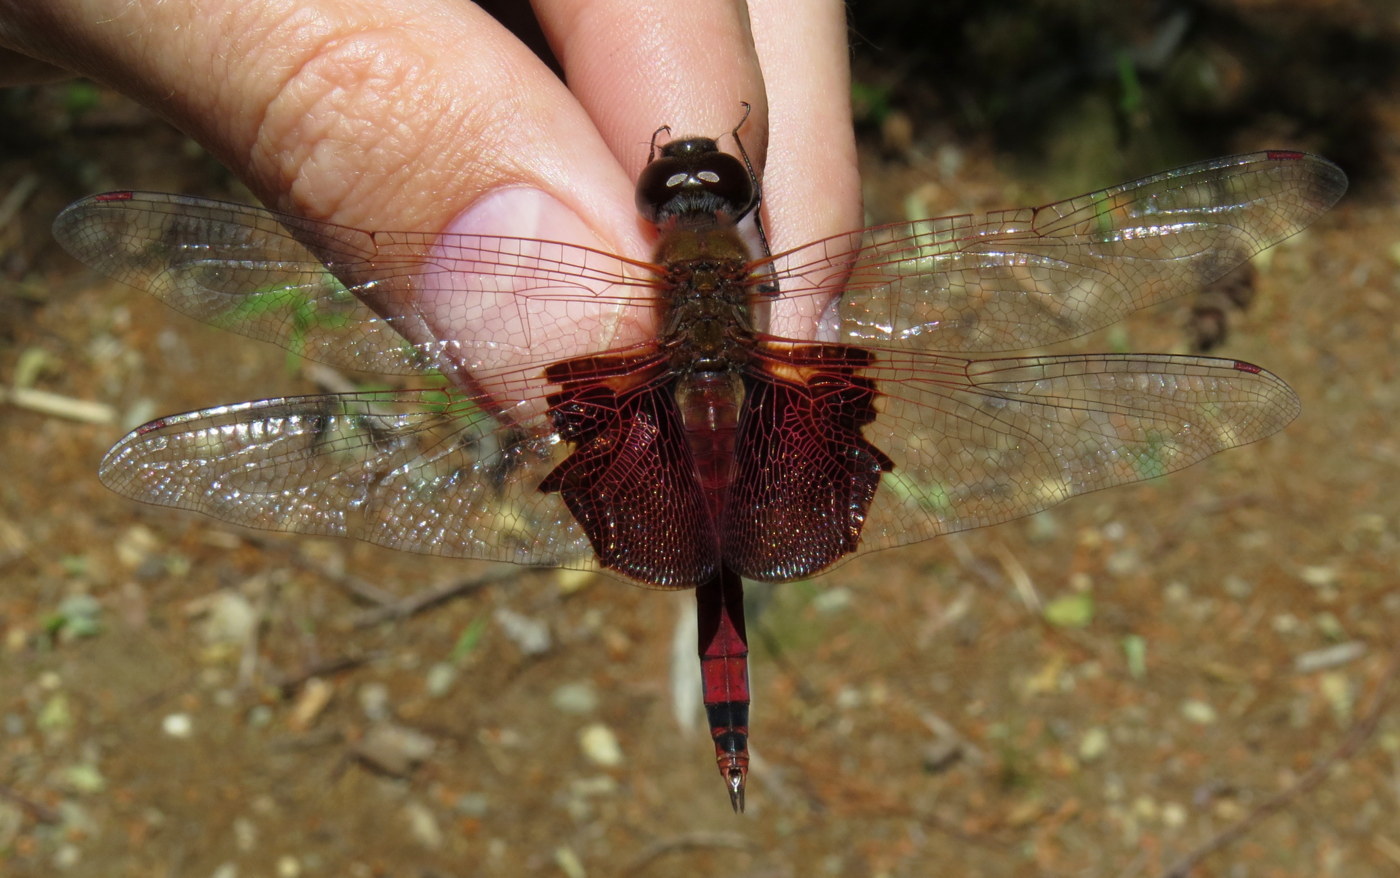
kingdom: Animalia
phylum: Arthropoda
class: Insecta
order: Odonata
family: Libellulidae
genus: Tramea
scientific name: Tramea carolina
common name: Carolina saddlebags
